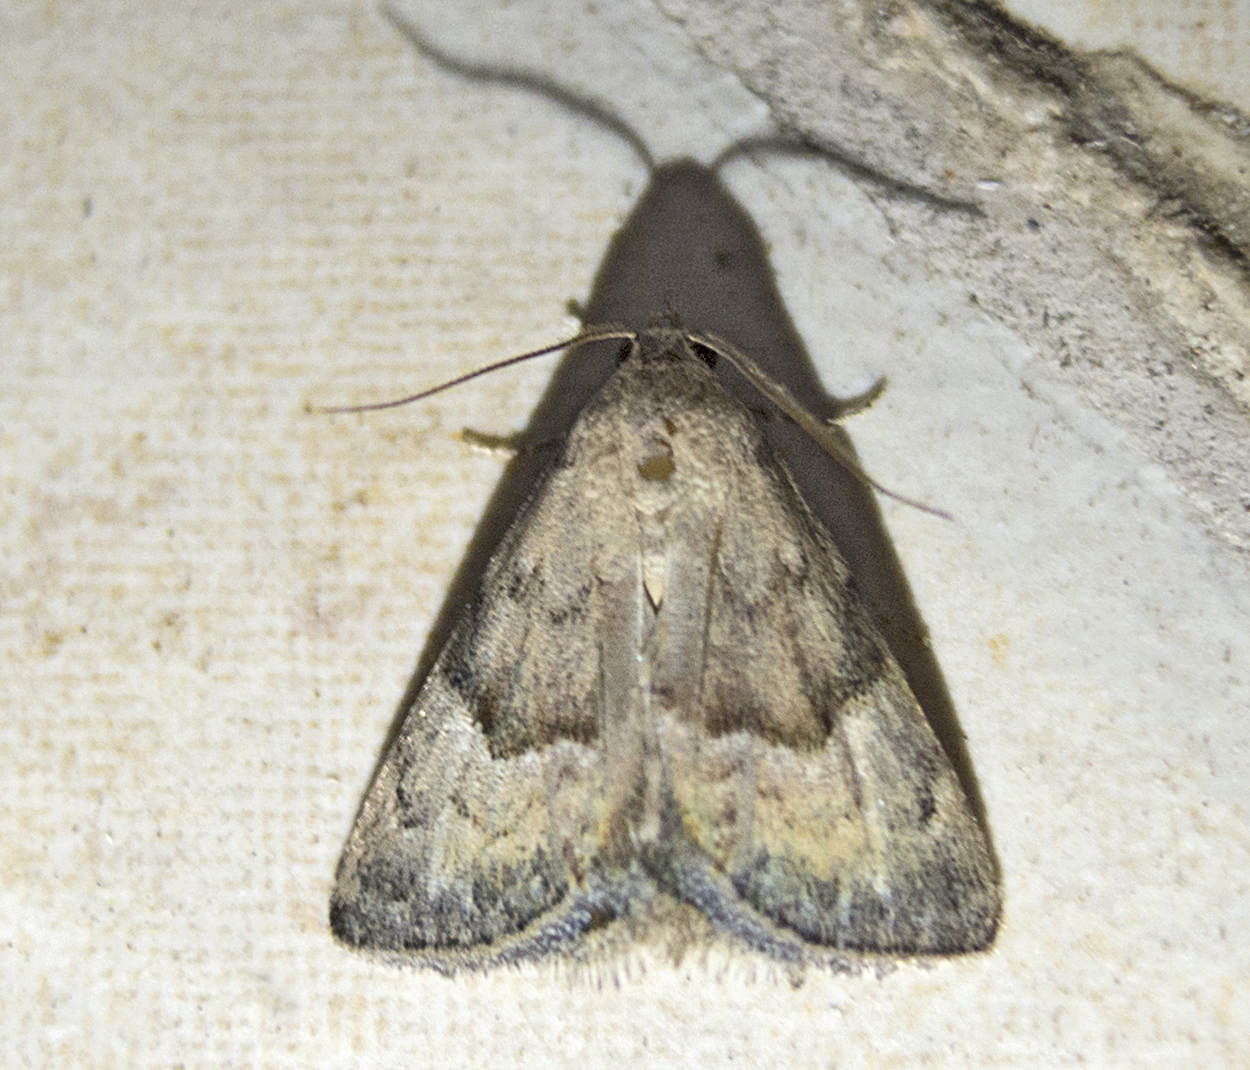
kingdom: Animalia
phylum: Arthropoda
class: Insecta
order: Lepidoptera
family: Noctuidae
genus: Odice
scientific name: Odice suava
